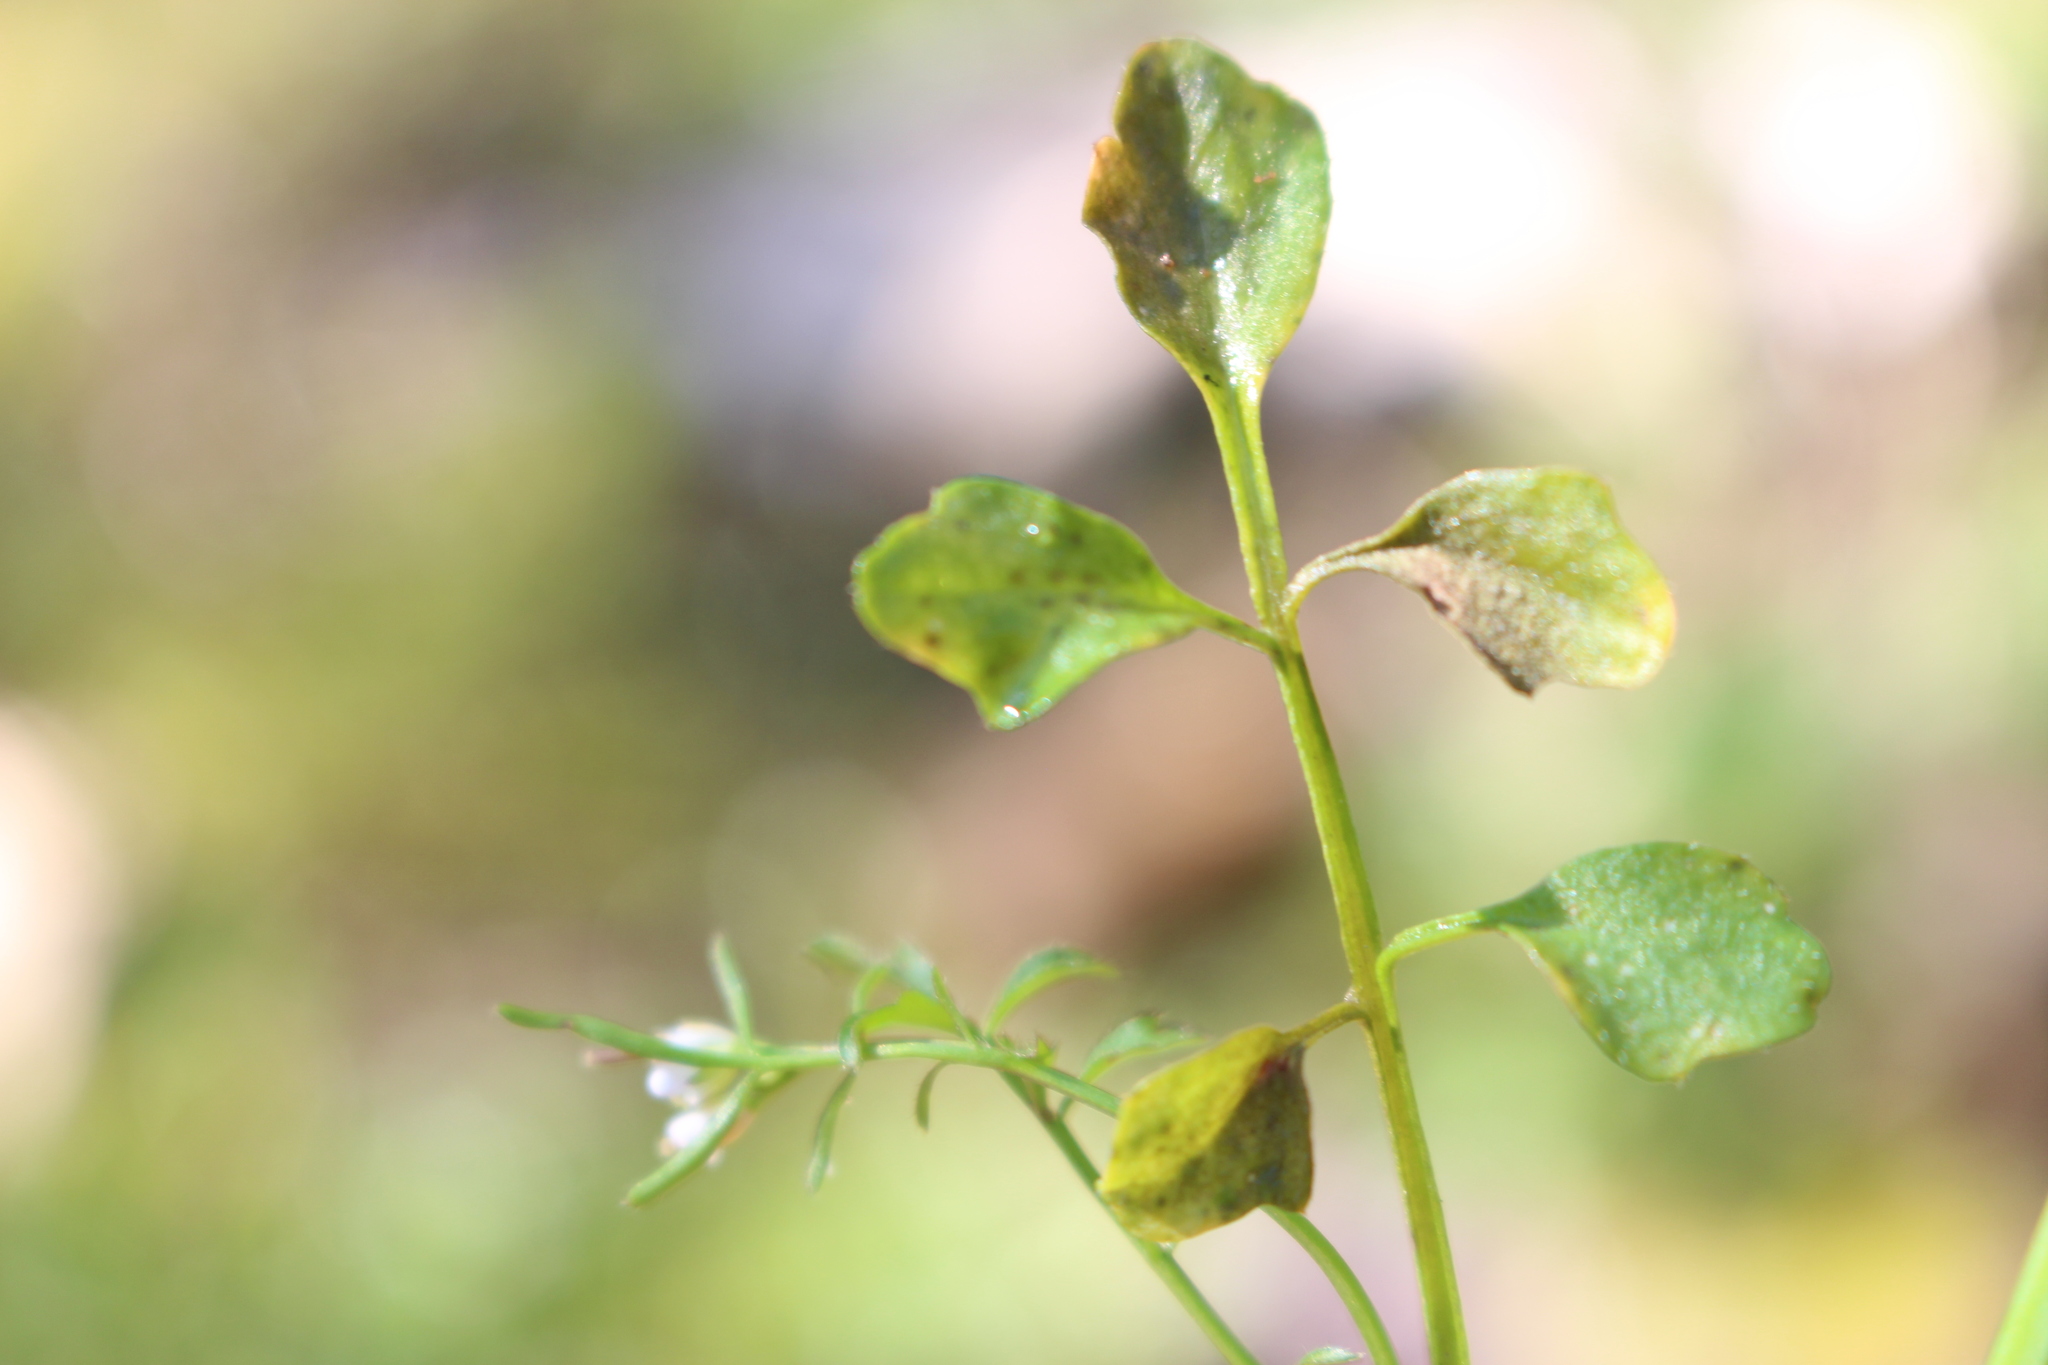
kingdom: Plantae
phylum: Tracheophyta
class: Magnoliopsida
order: Brassicales
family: Brassicaceae
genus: Cardamine
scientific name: Cardamine hirsuta
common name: Hairy bittercress
